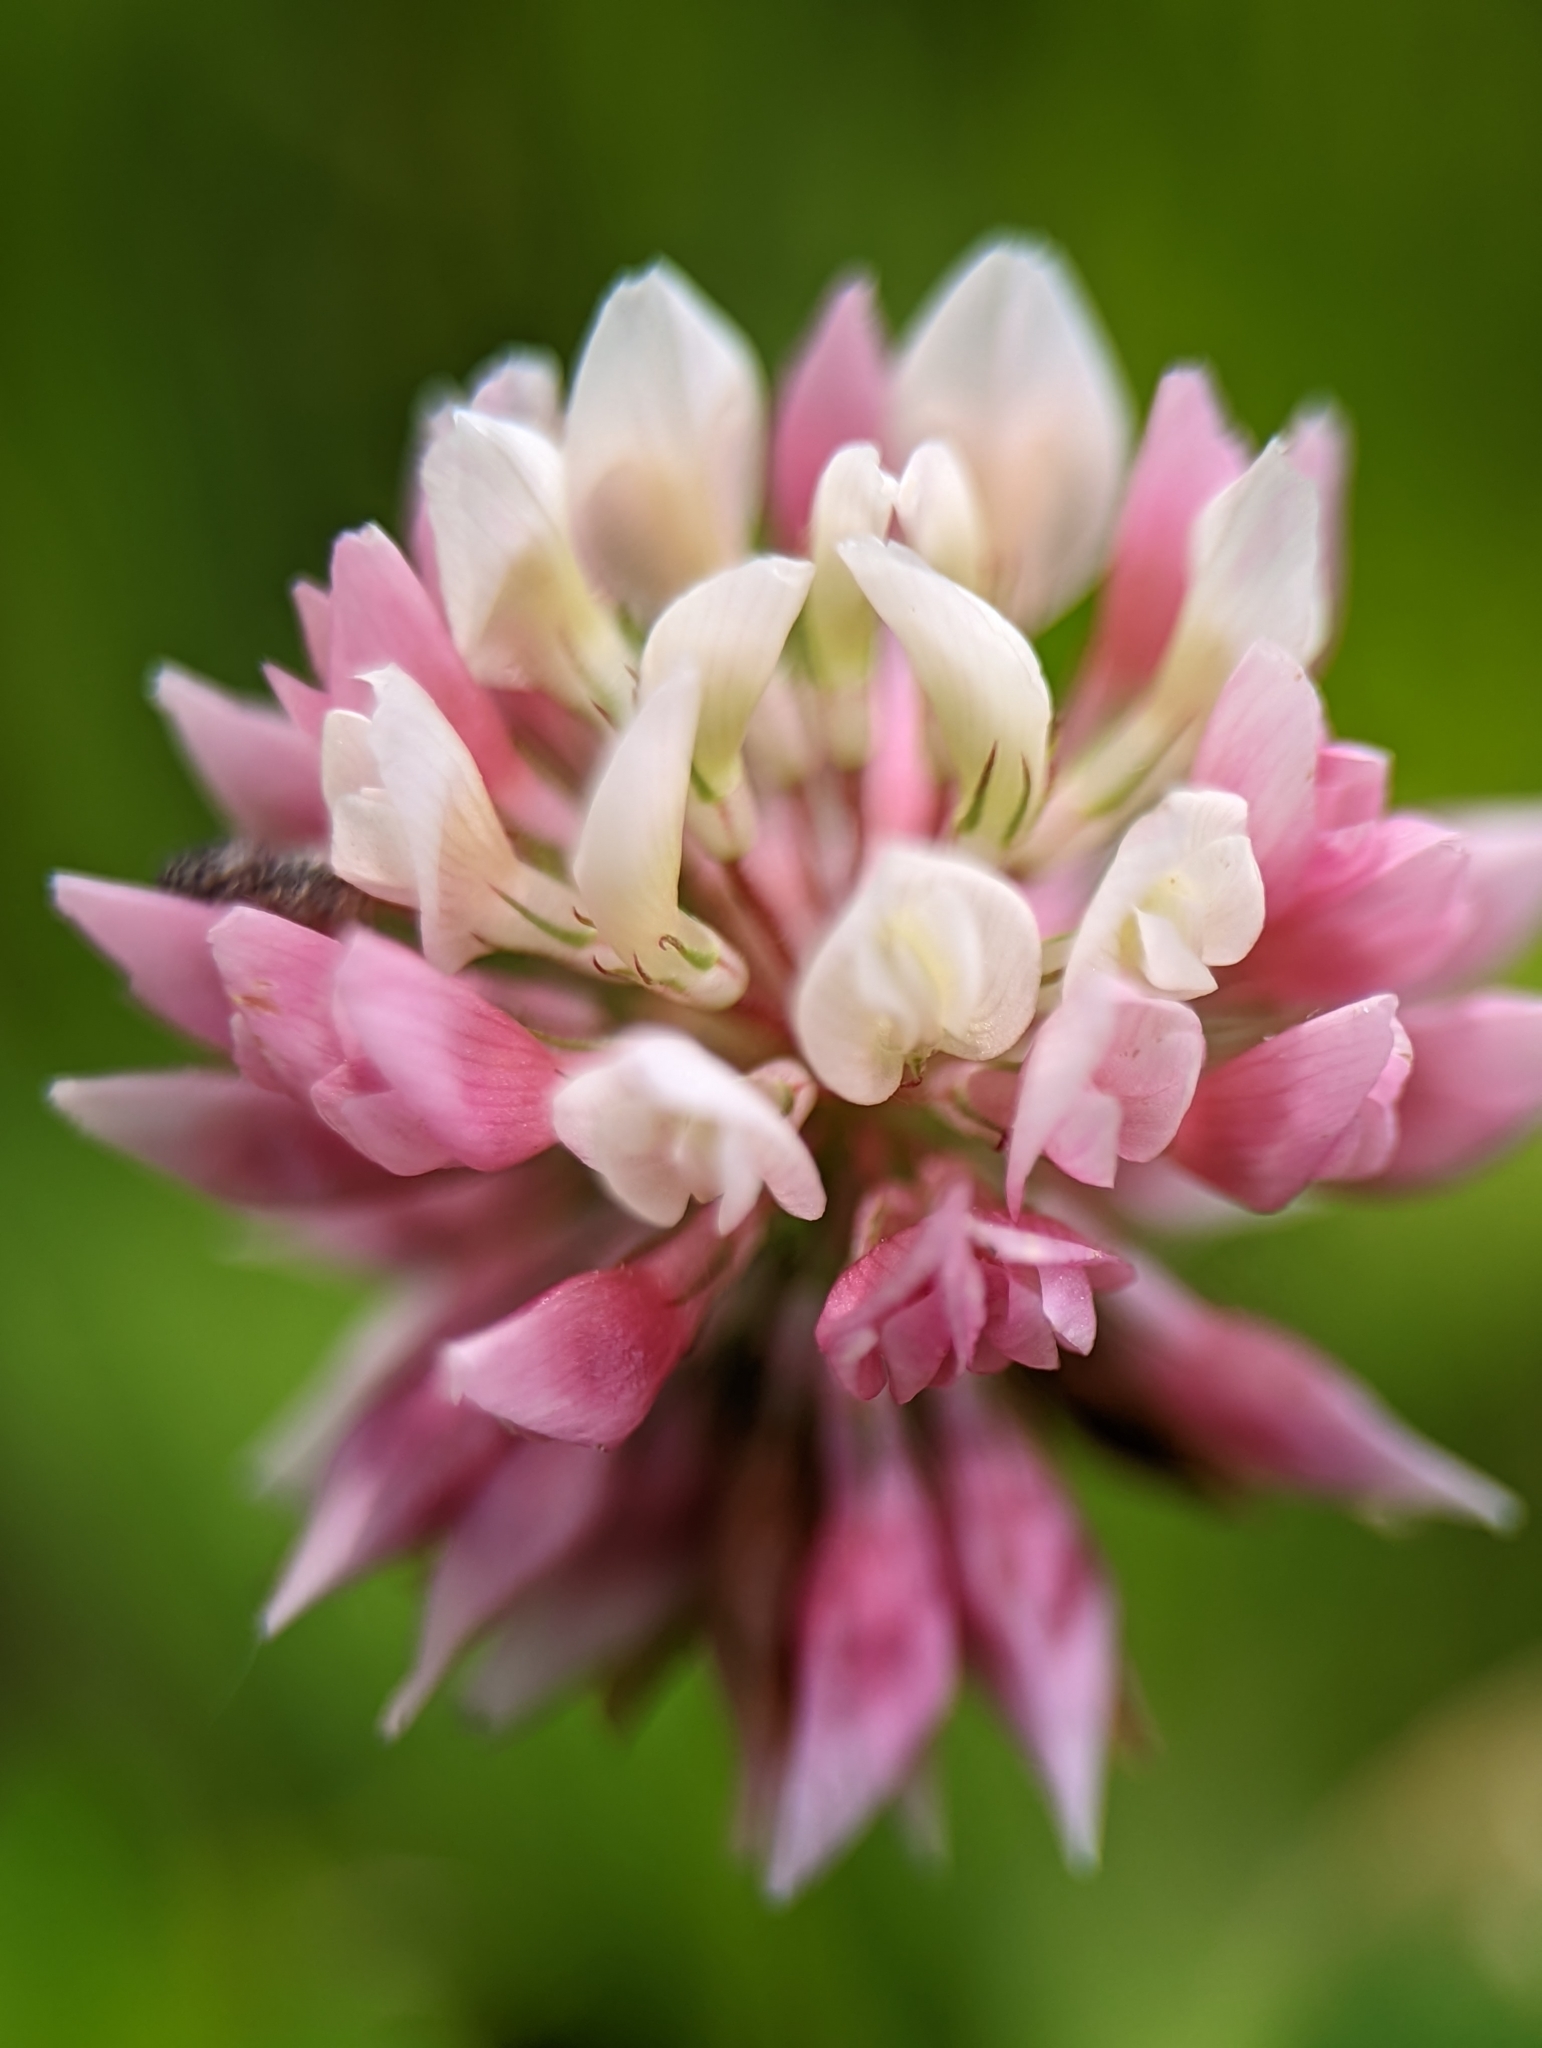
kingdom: Plantae
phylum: Tracheophyta
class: Magnoliopsida
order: Fabales
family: Fabaceae
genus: Trifolium
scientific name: Trifolium hybridum
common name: Alsike clover
